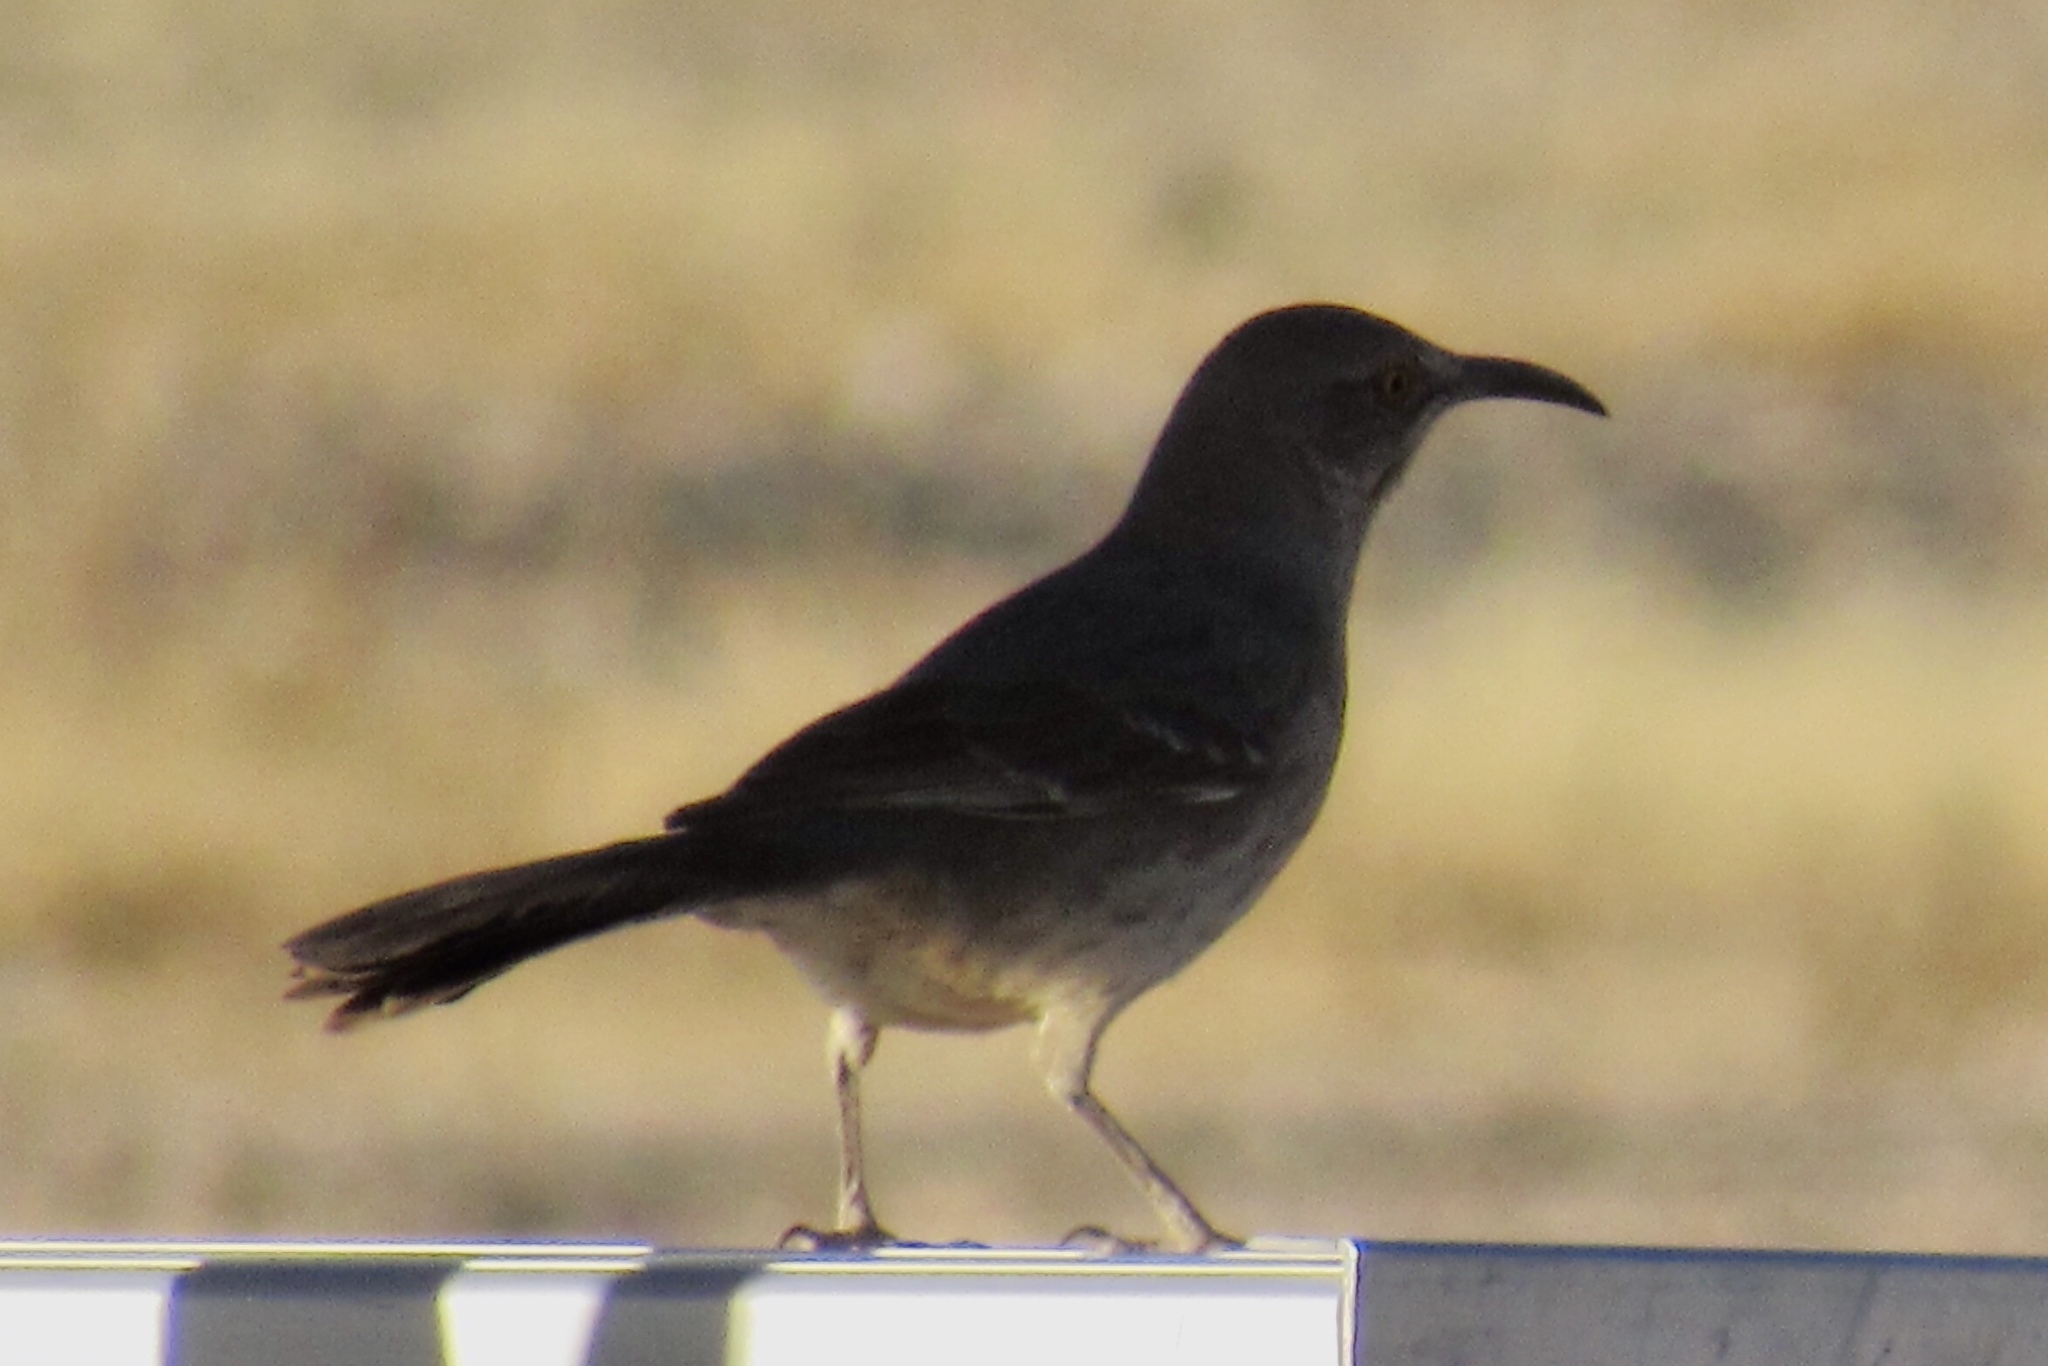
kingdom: Animalia
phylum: Chordata
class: Aves
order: Passeriformes
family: Mimidae
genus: Toxostoma
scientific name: Toxostoma curvirostre
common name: Curve-billed thrasher
